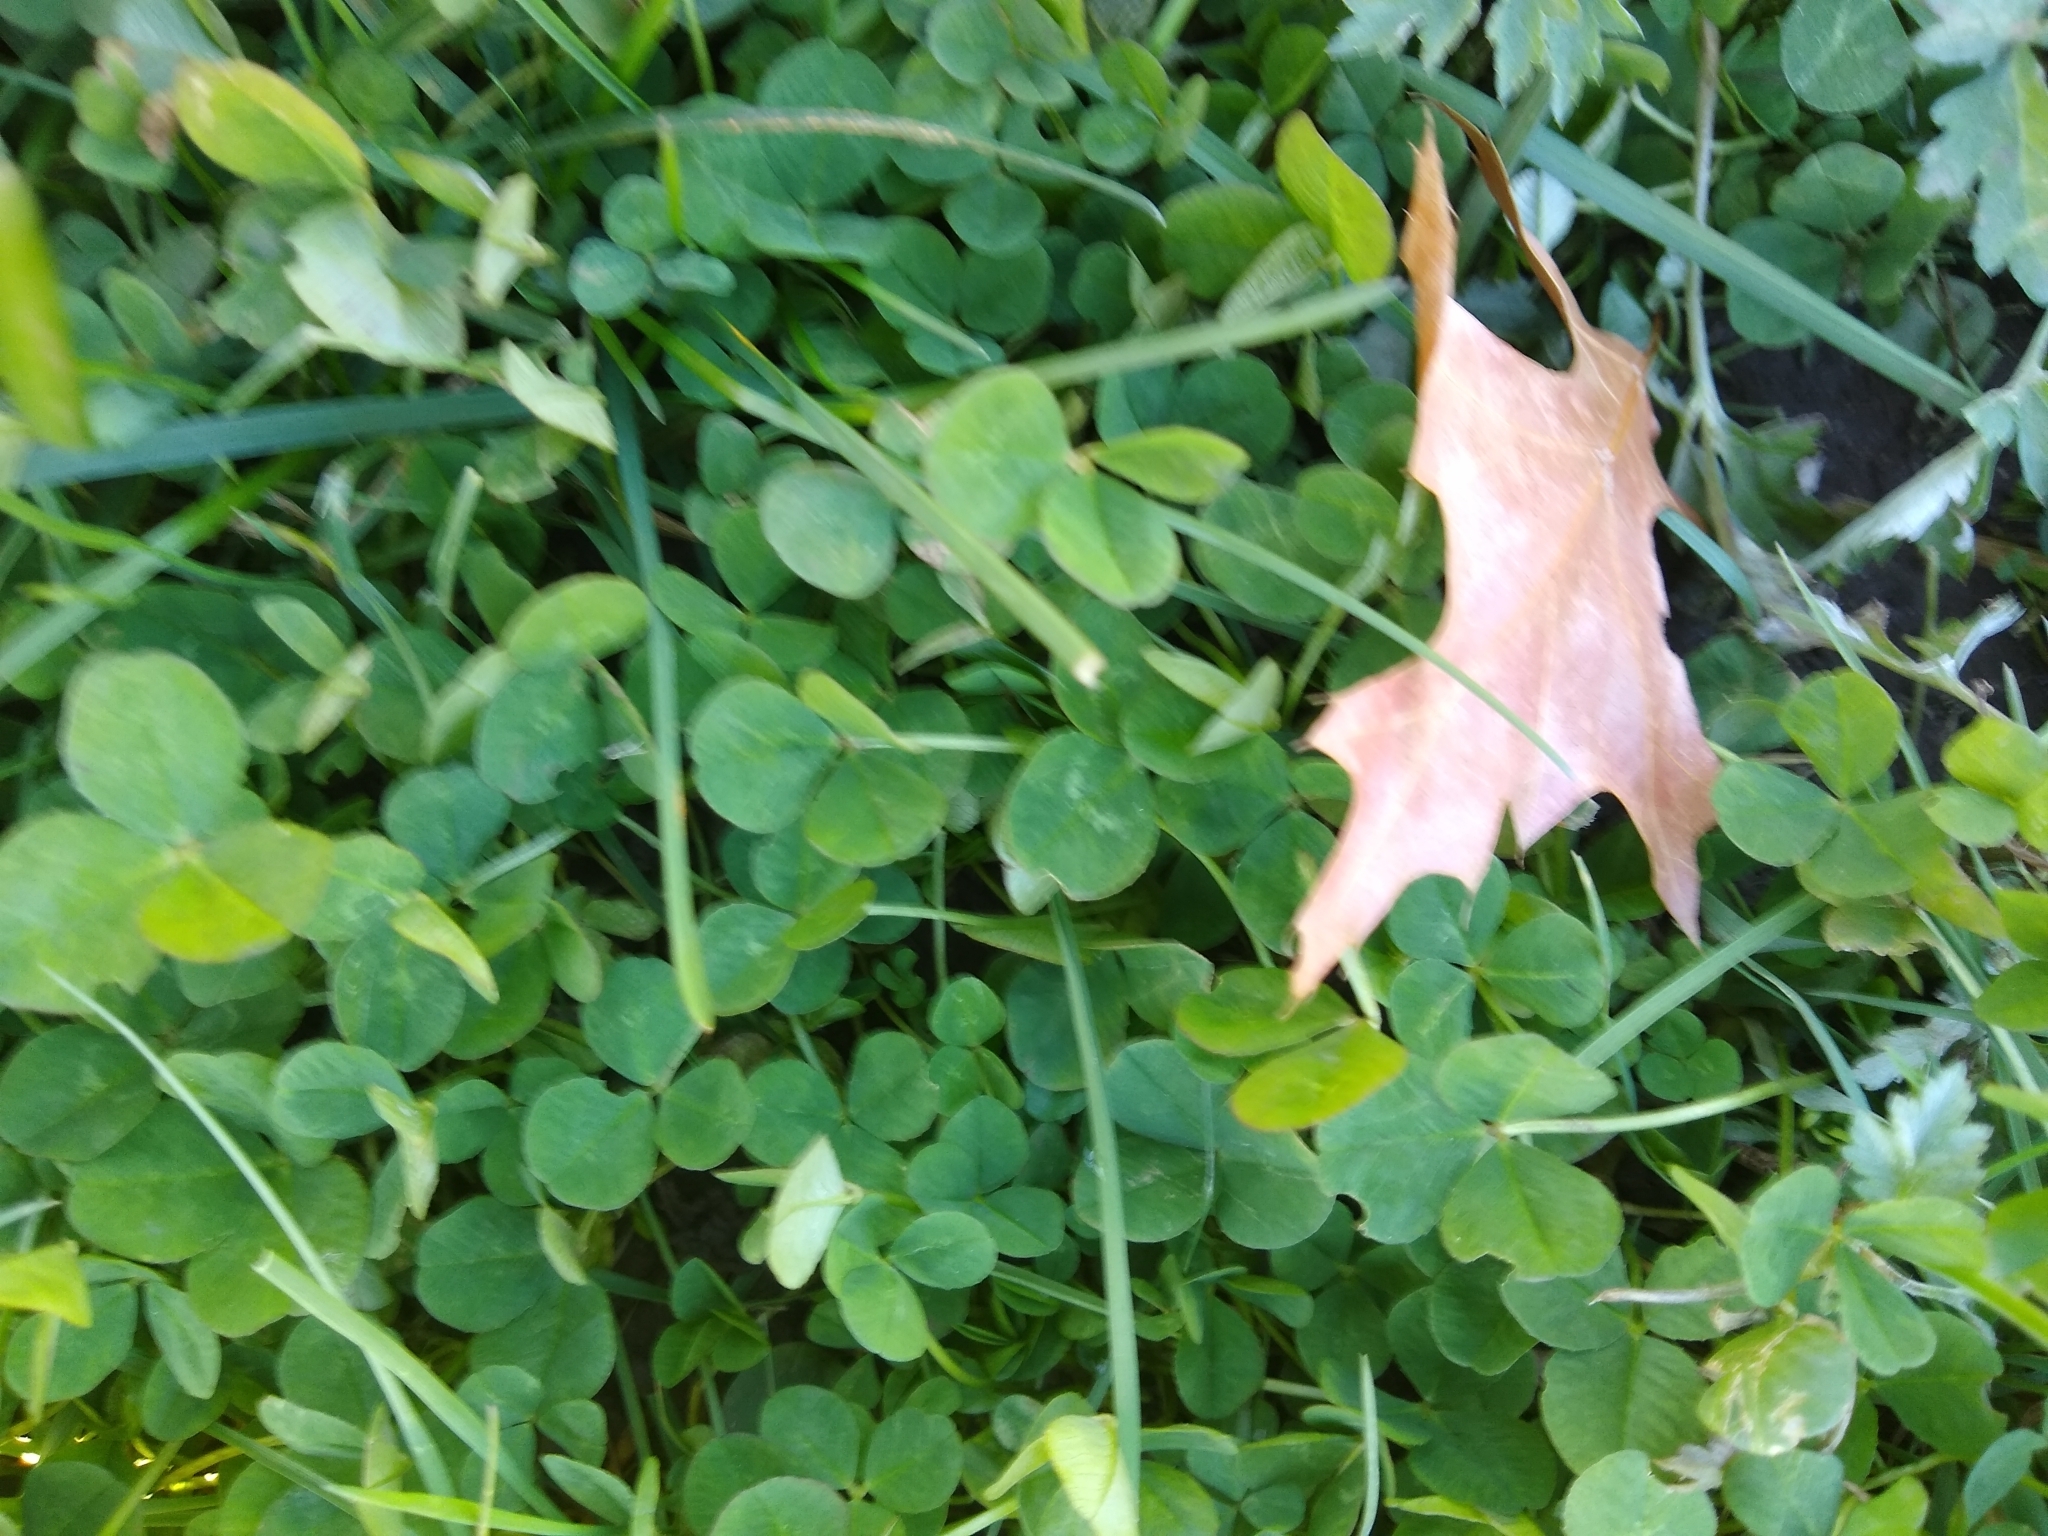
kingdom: Plantae
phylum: Tracheophyta
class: Magnoliopsida
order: Fabales
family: Fabaceae
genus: Trifolium
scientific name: Trifolium repens
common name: White clover
